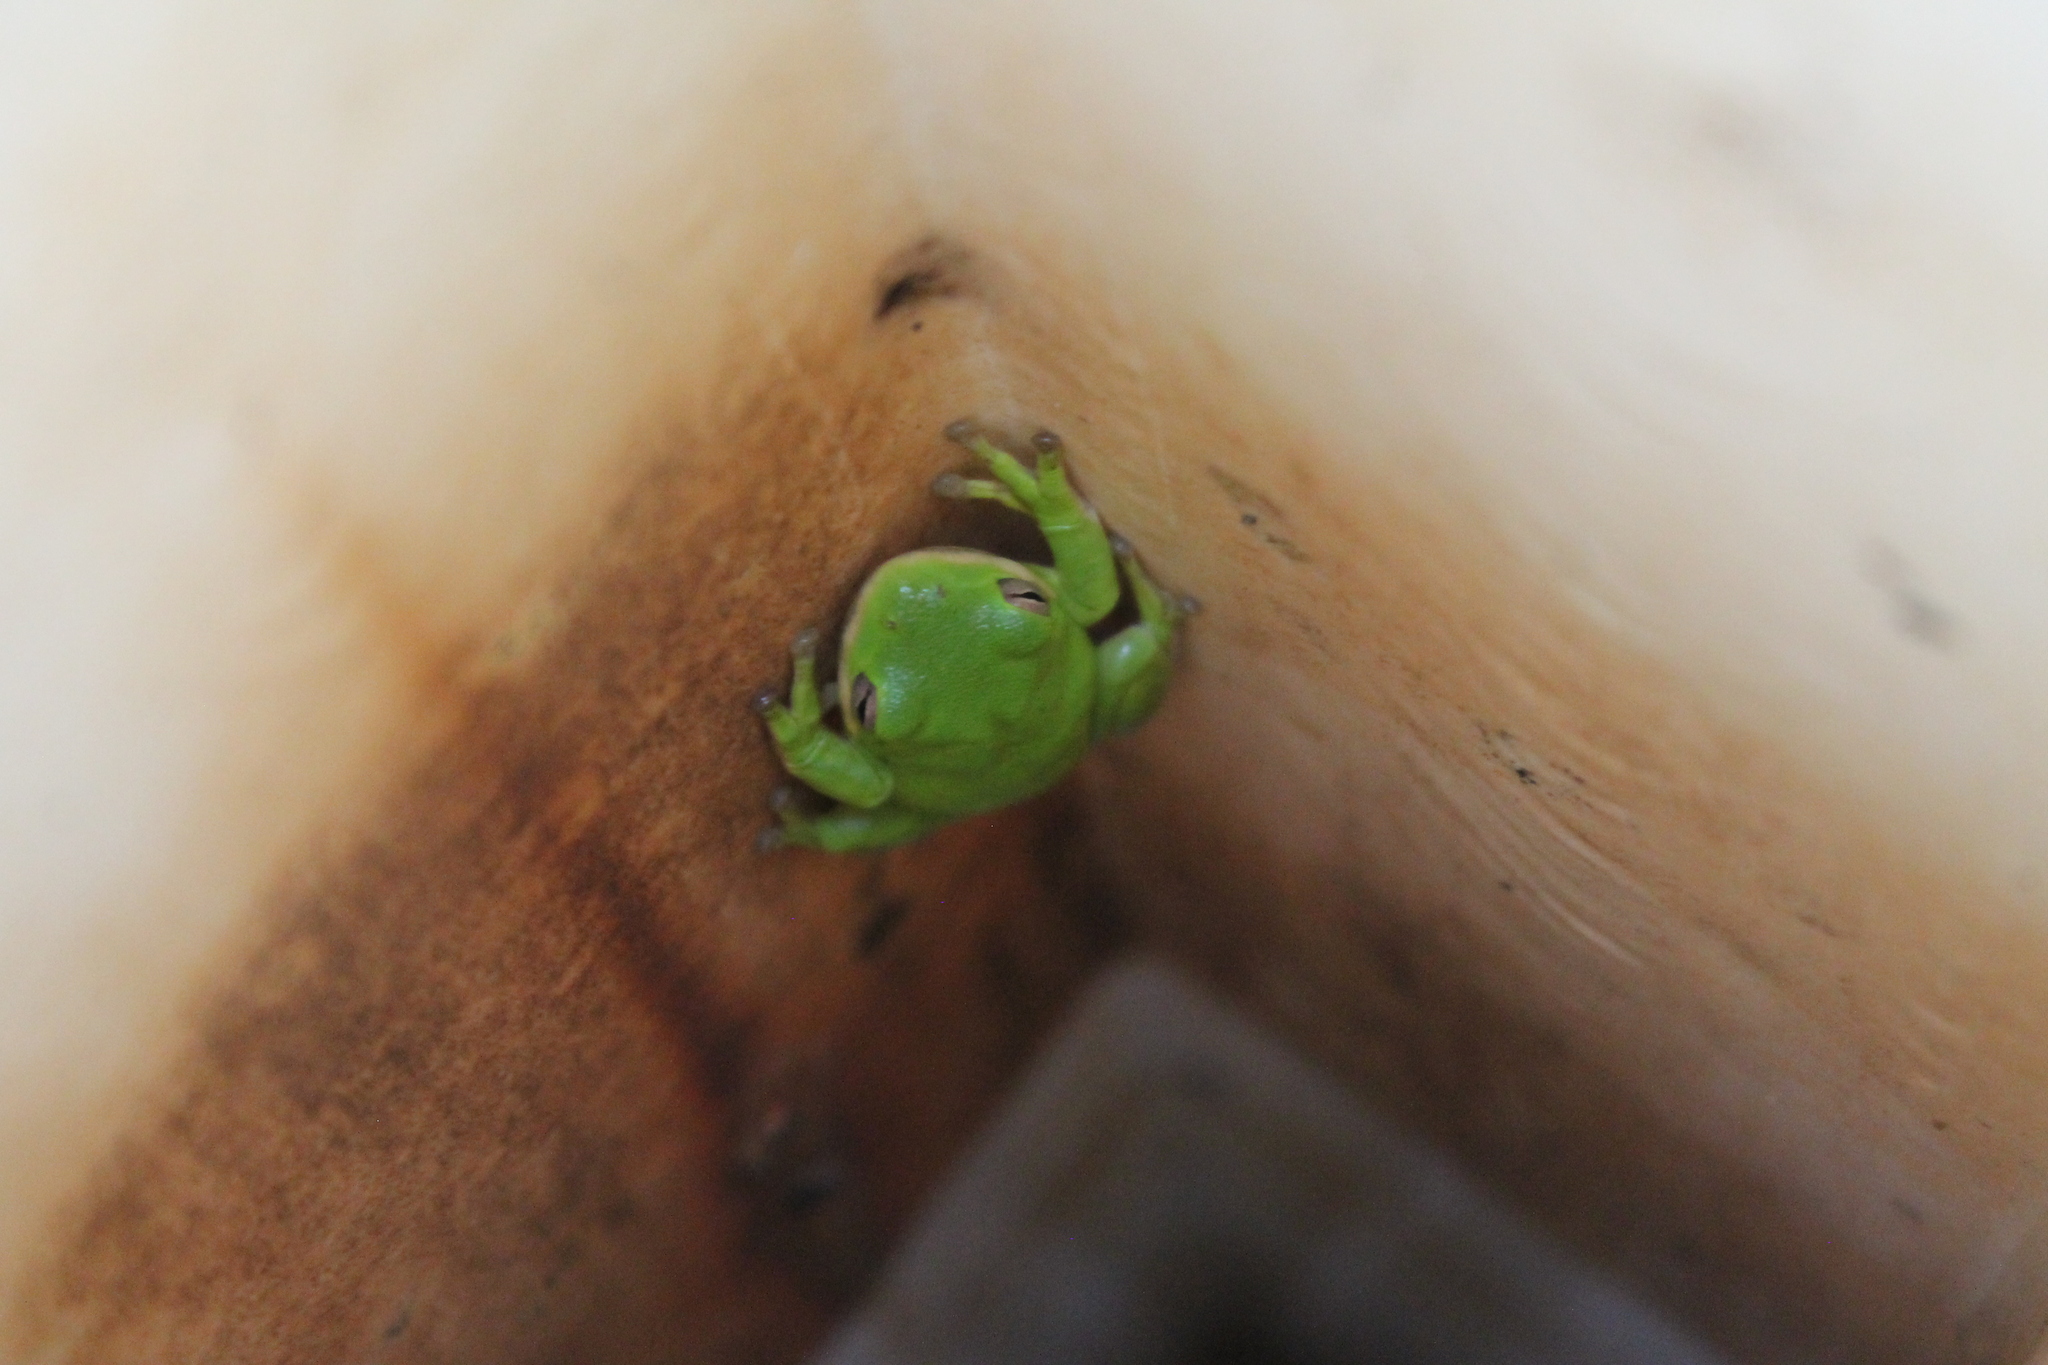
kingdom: Animalia
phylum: Chordata
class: Amphibia
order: Anura
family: Hylidae
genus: Dryophytes
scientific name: Dryophytes cinereus
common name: Green treefrog
